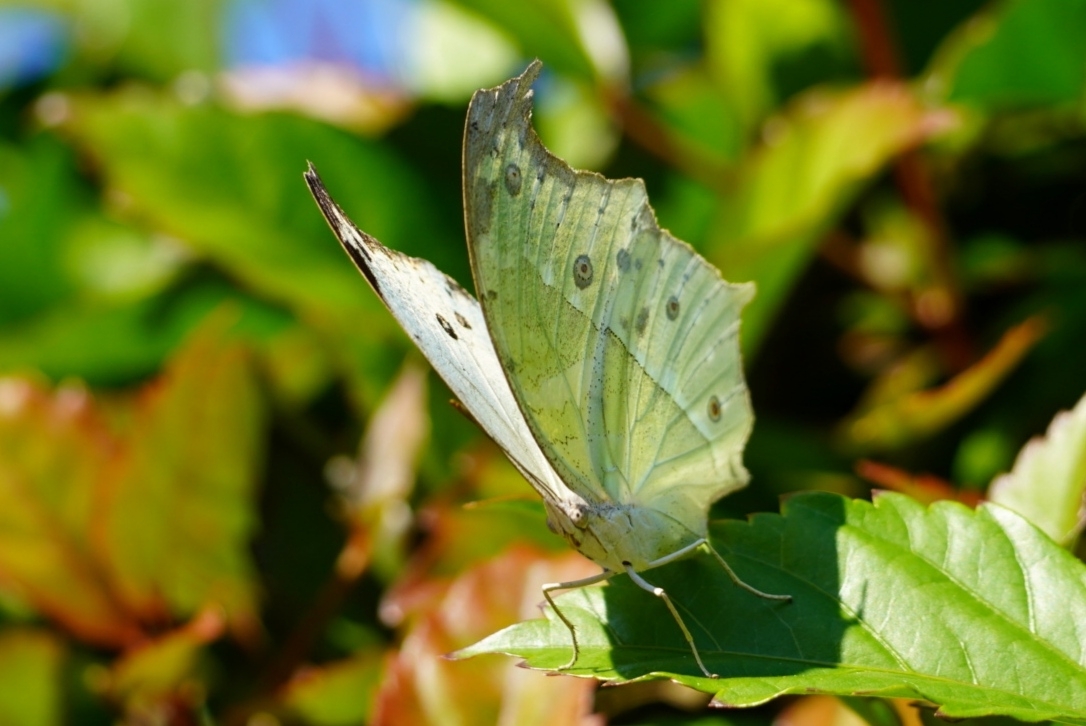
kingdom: Animalia
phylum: Arthropoda
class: Insecta
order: Lepidoptera
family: Nymphalidae
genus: Salamis
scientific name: Salamis Protogoniomorpha parhassus
